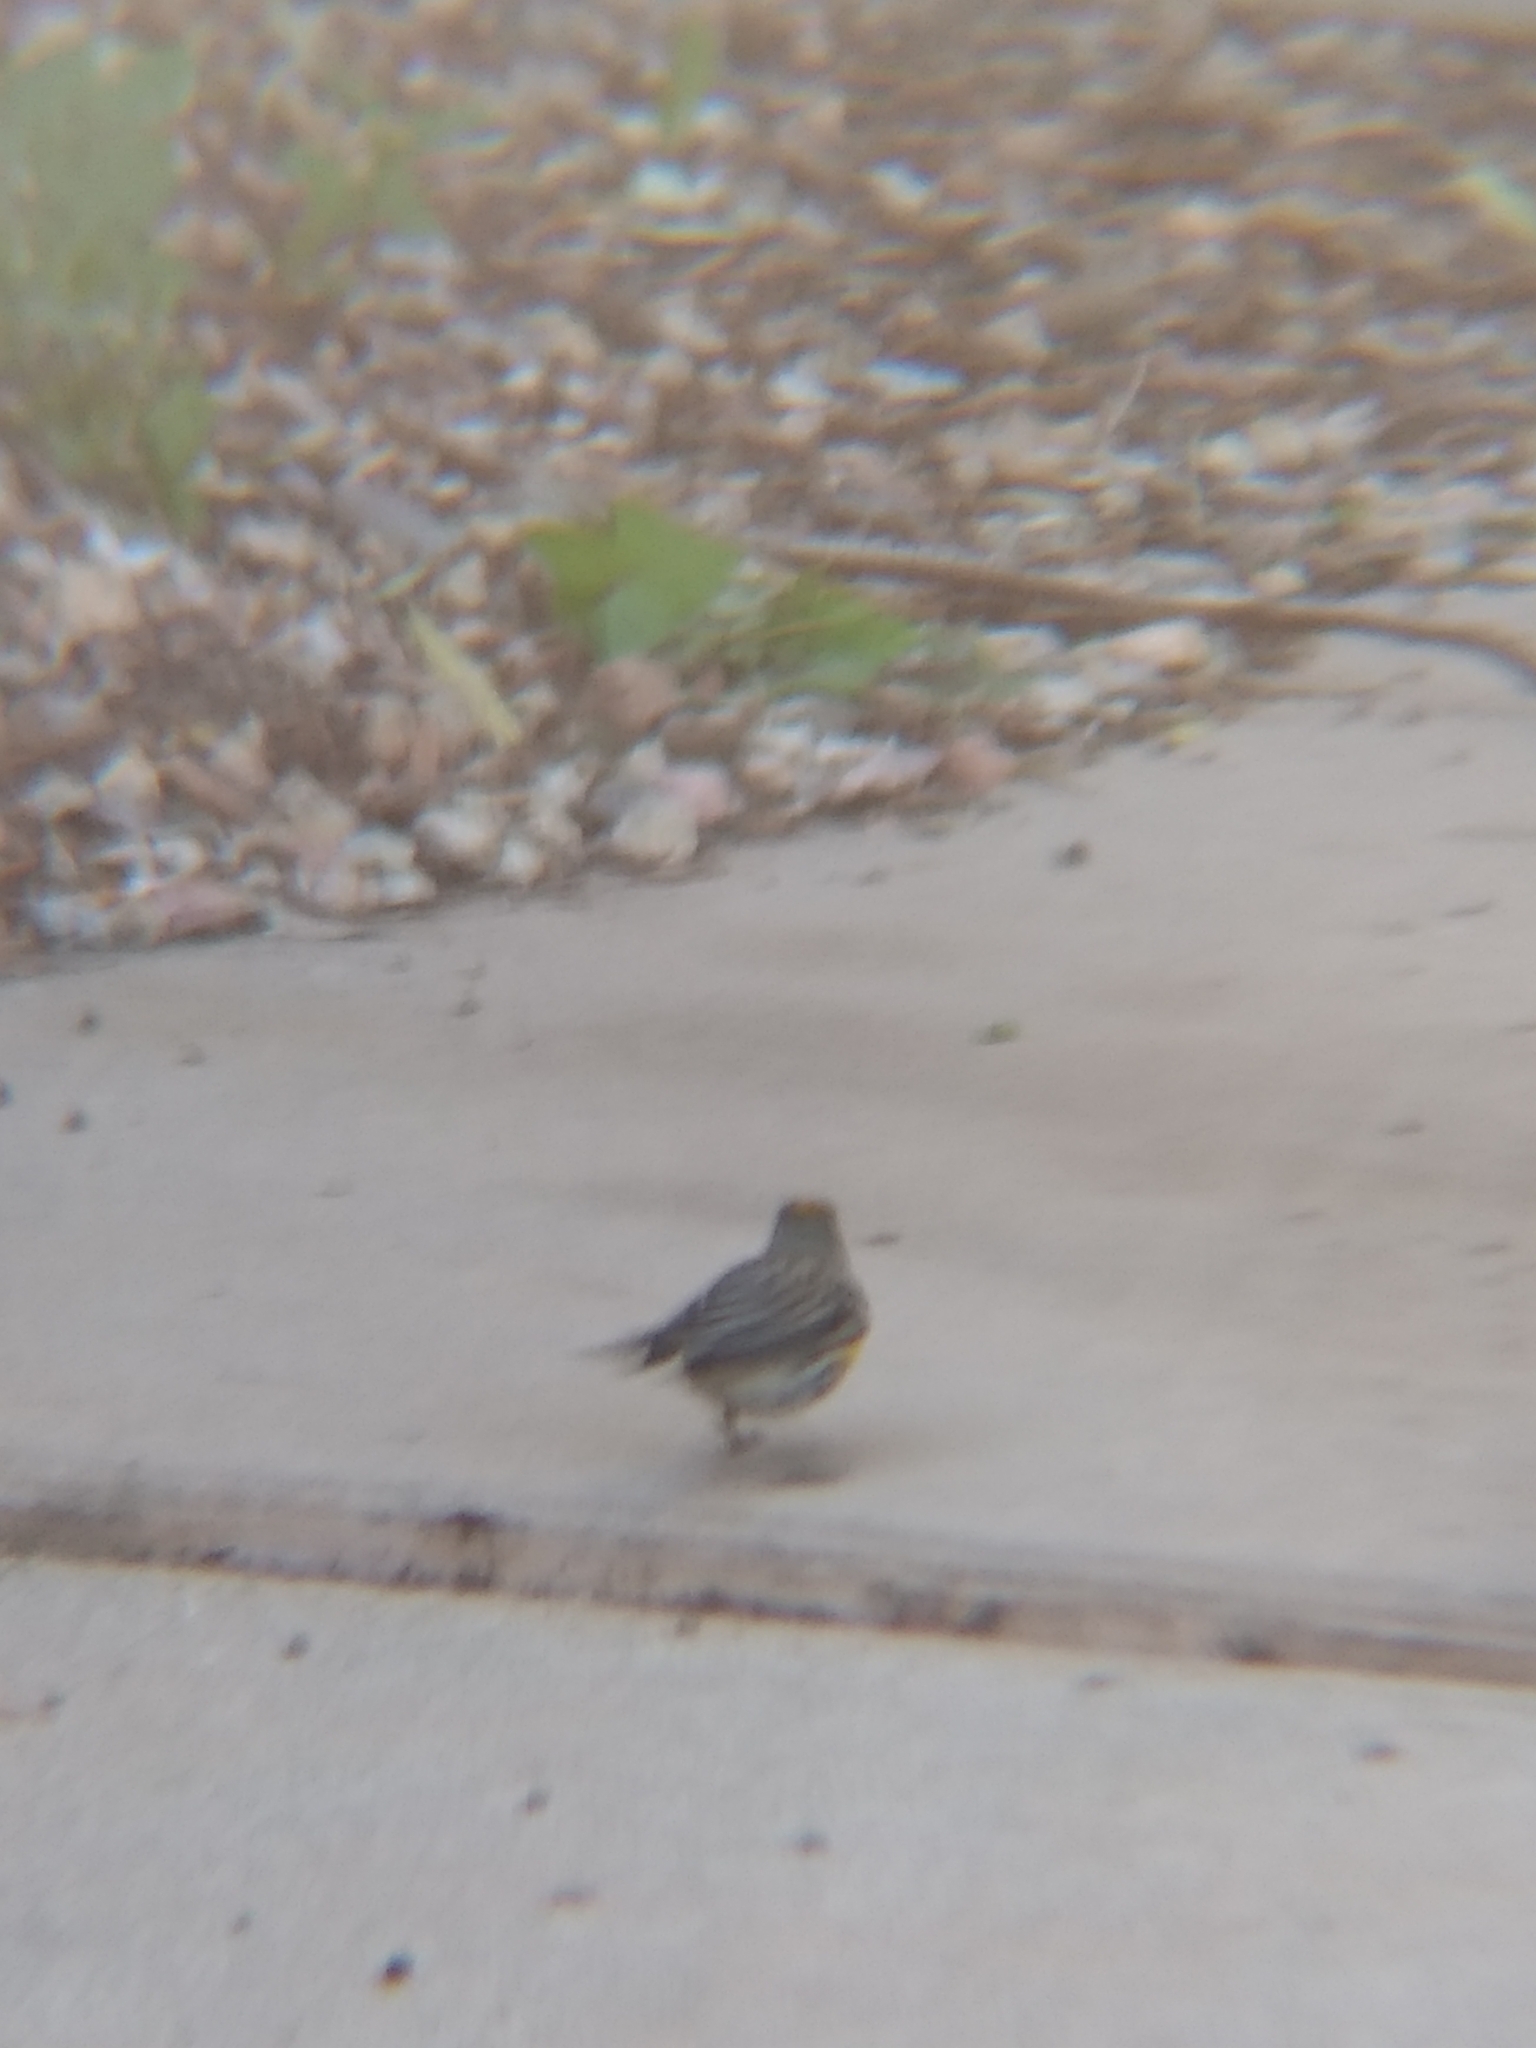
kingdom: Animalia
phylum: Chordata
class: Aves
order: Passeriformes
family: Parulidae
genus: Setophaga
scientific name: Setophaga coronata
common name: Myrtle warbler
